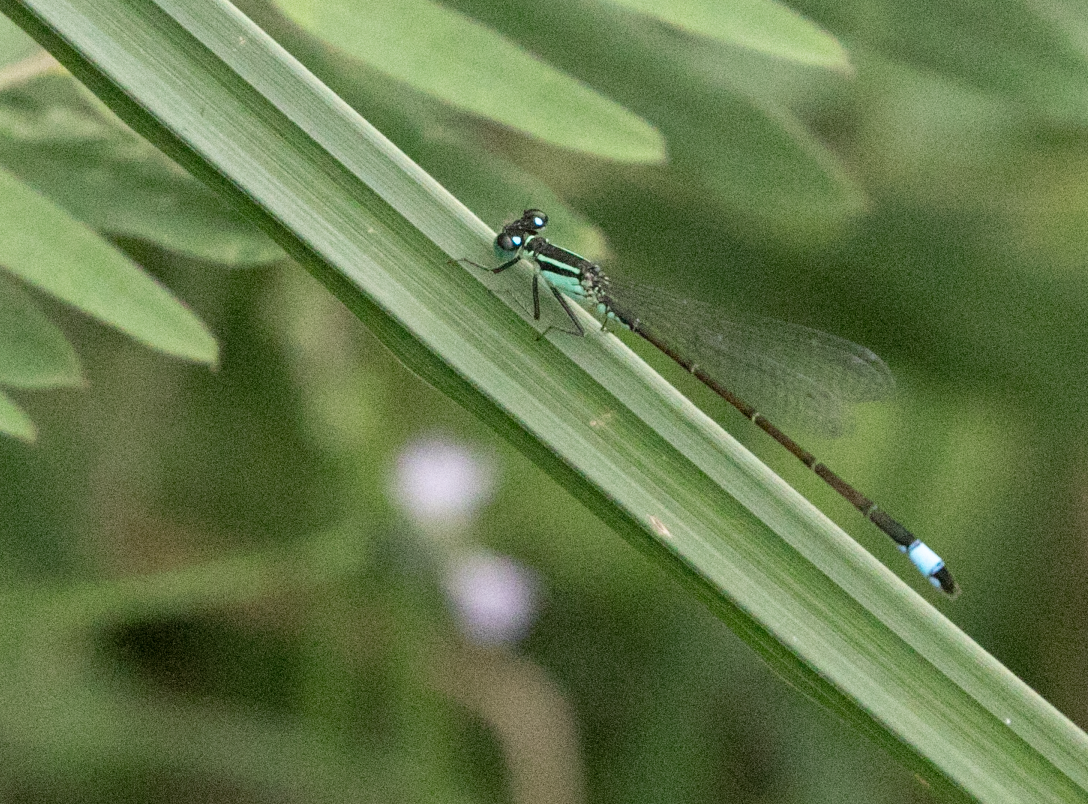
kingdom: Animalia
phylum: Arthropoda
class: Insecta
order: Odonata
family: Coenagrionidae
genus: Ischnura
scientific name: Ischnura elegans
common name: Blue-tailed damselfly
